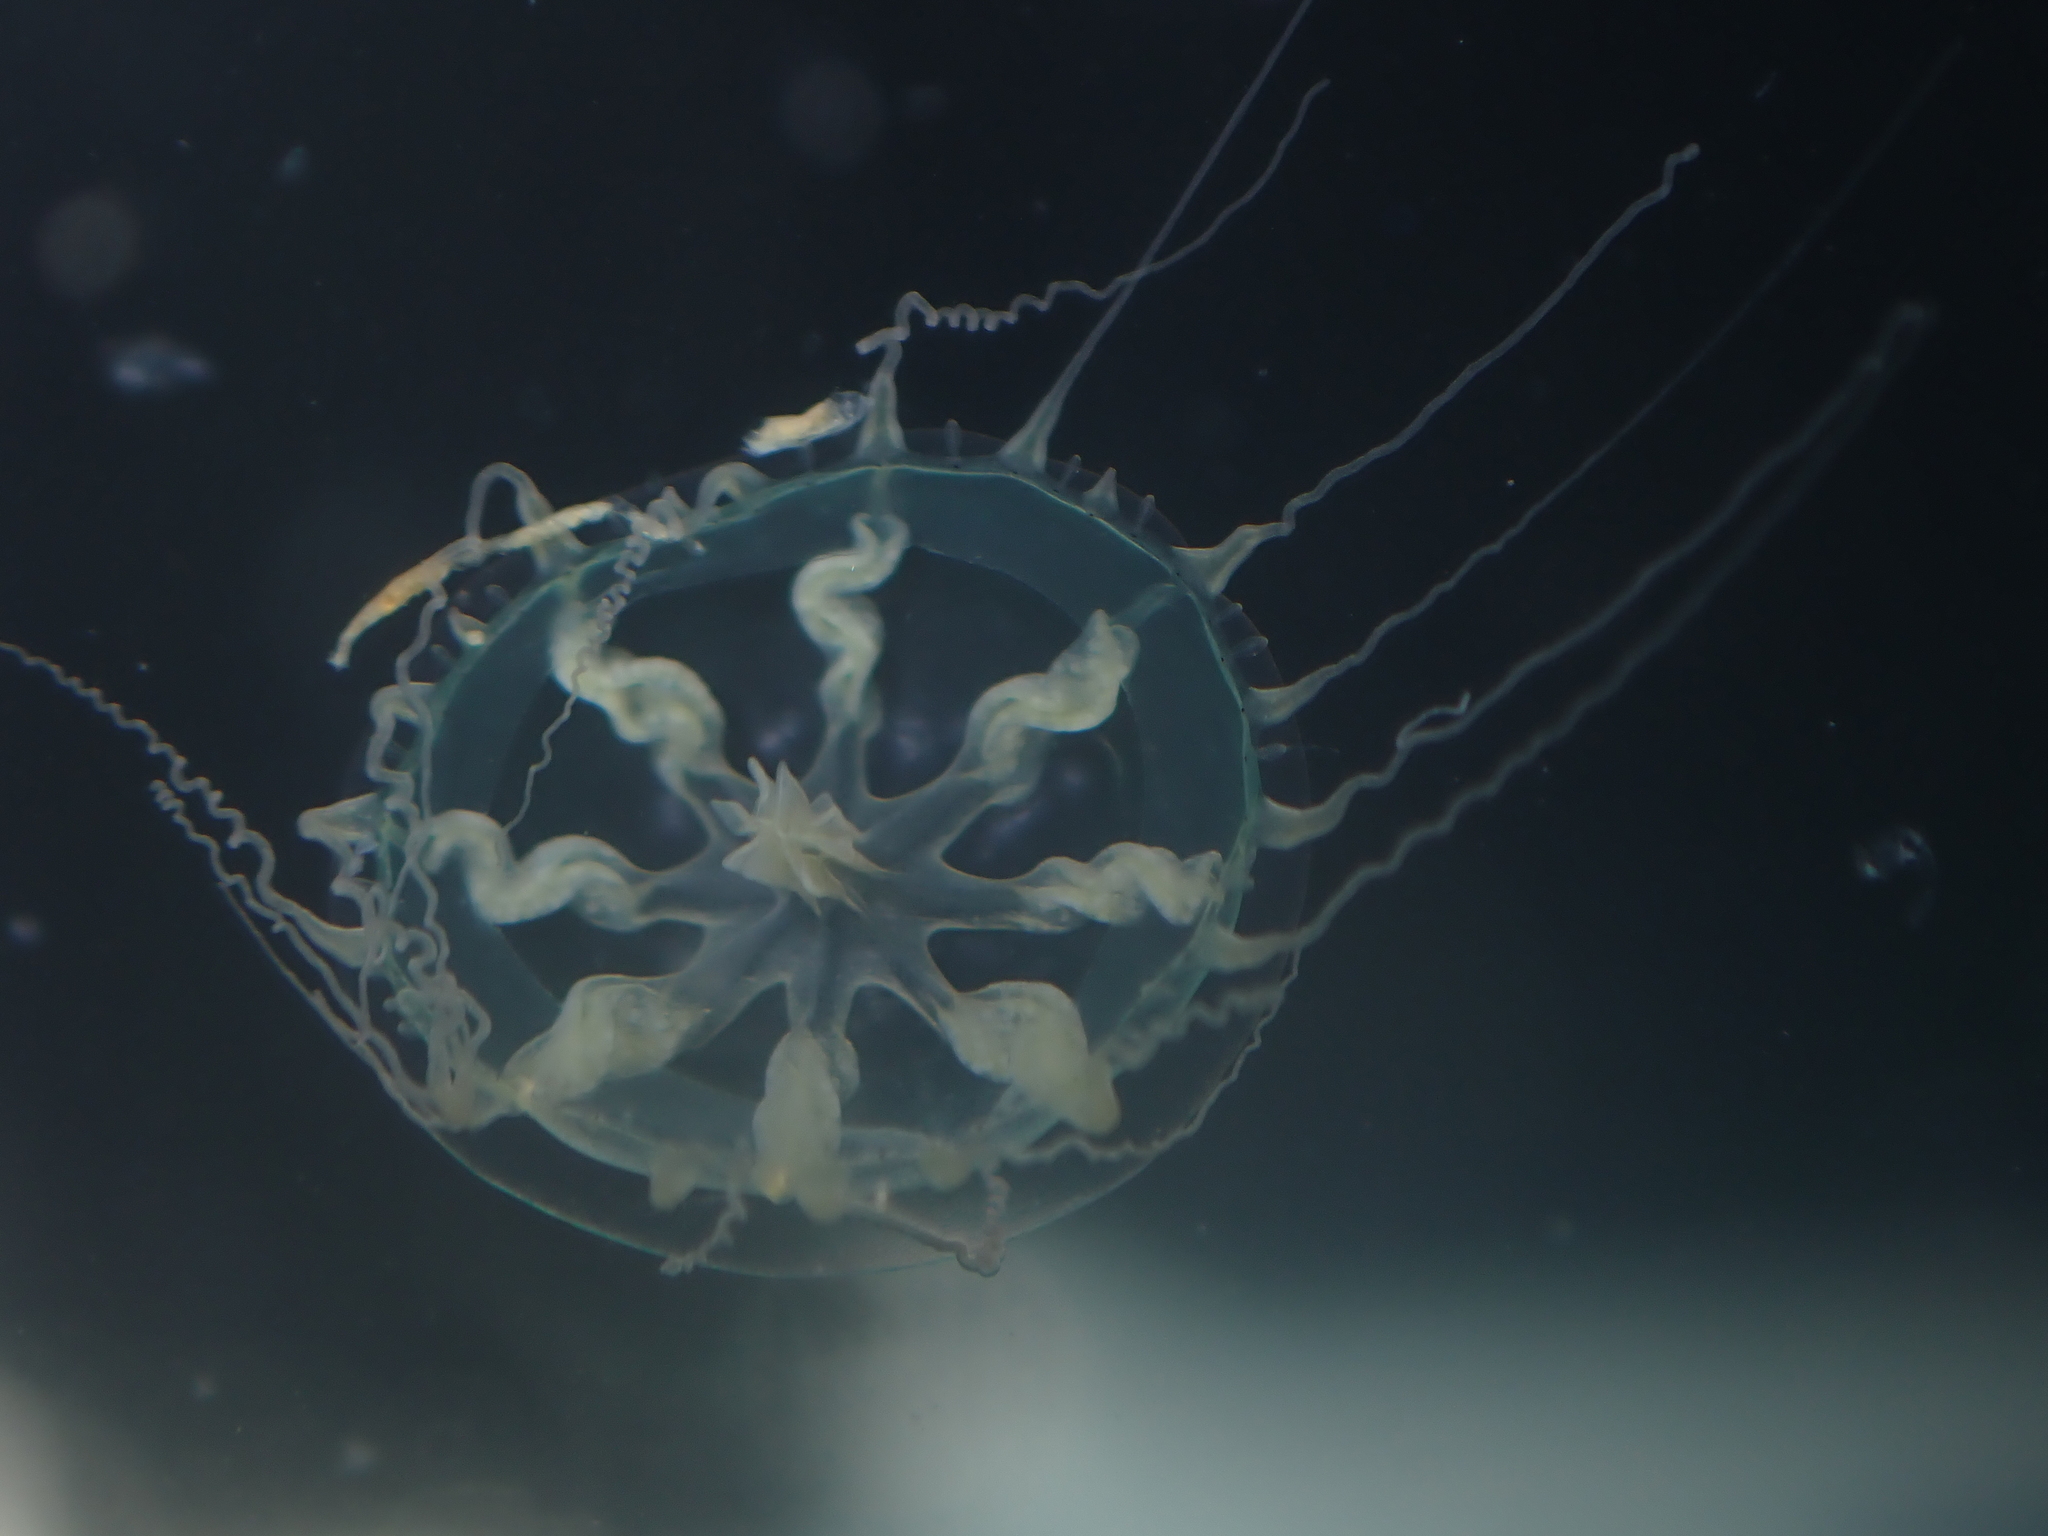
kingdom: Animalia
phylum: Cnidaria
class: Hydrozoa
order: Leptothecata
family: Laodiceidae
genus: Melicertissa
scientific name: Melicertissa orientalis
